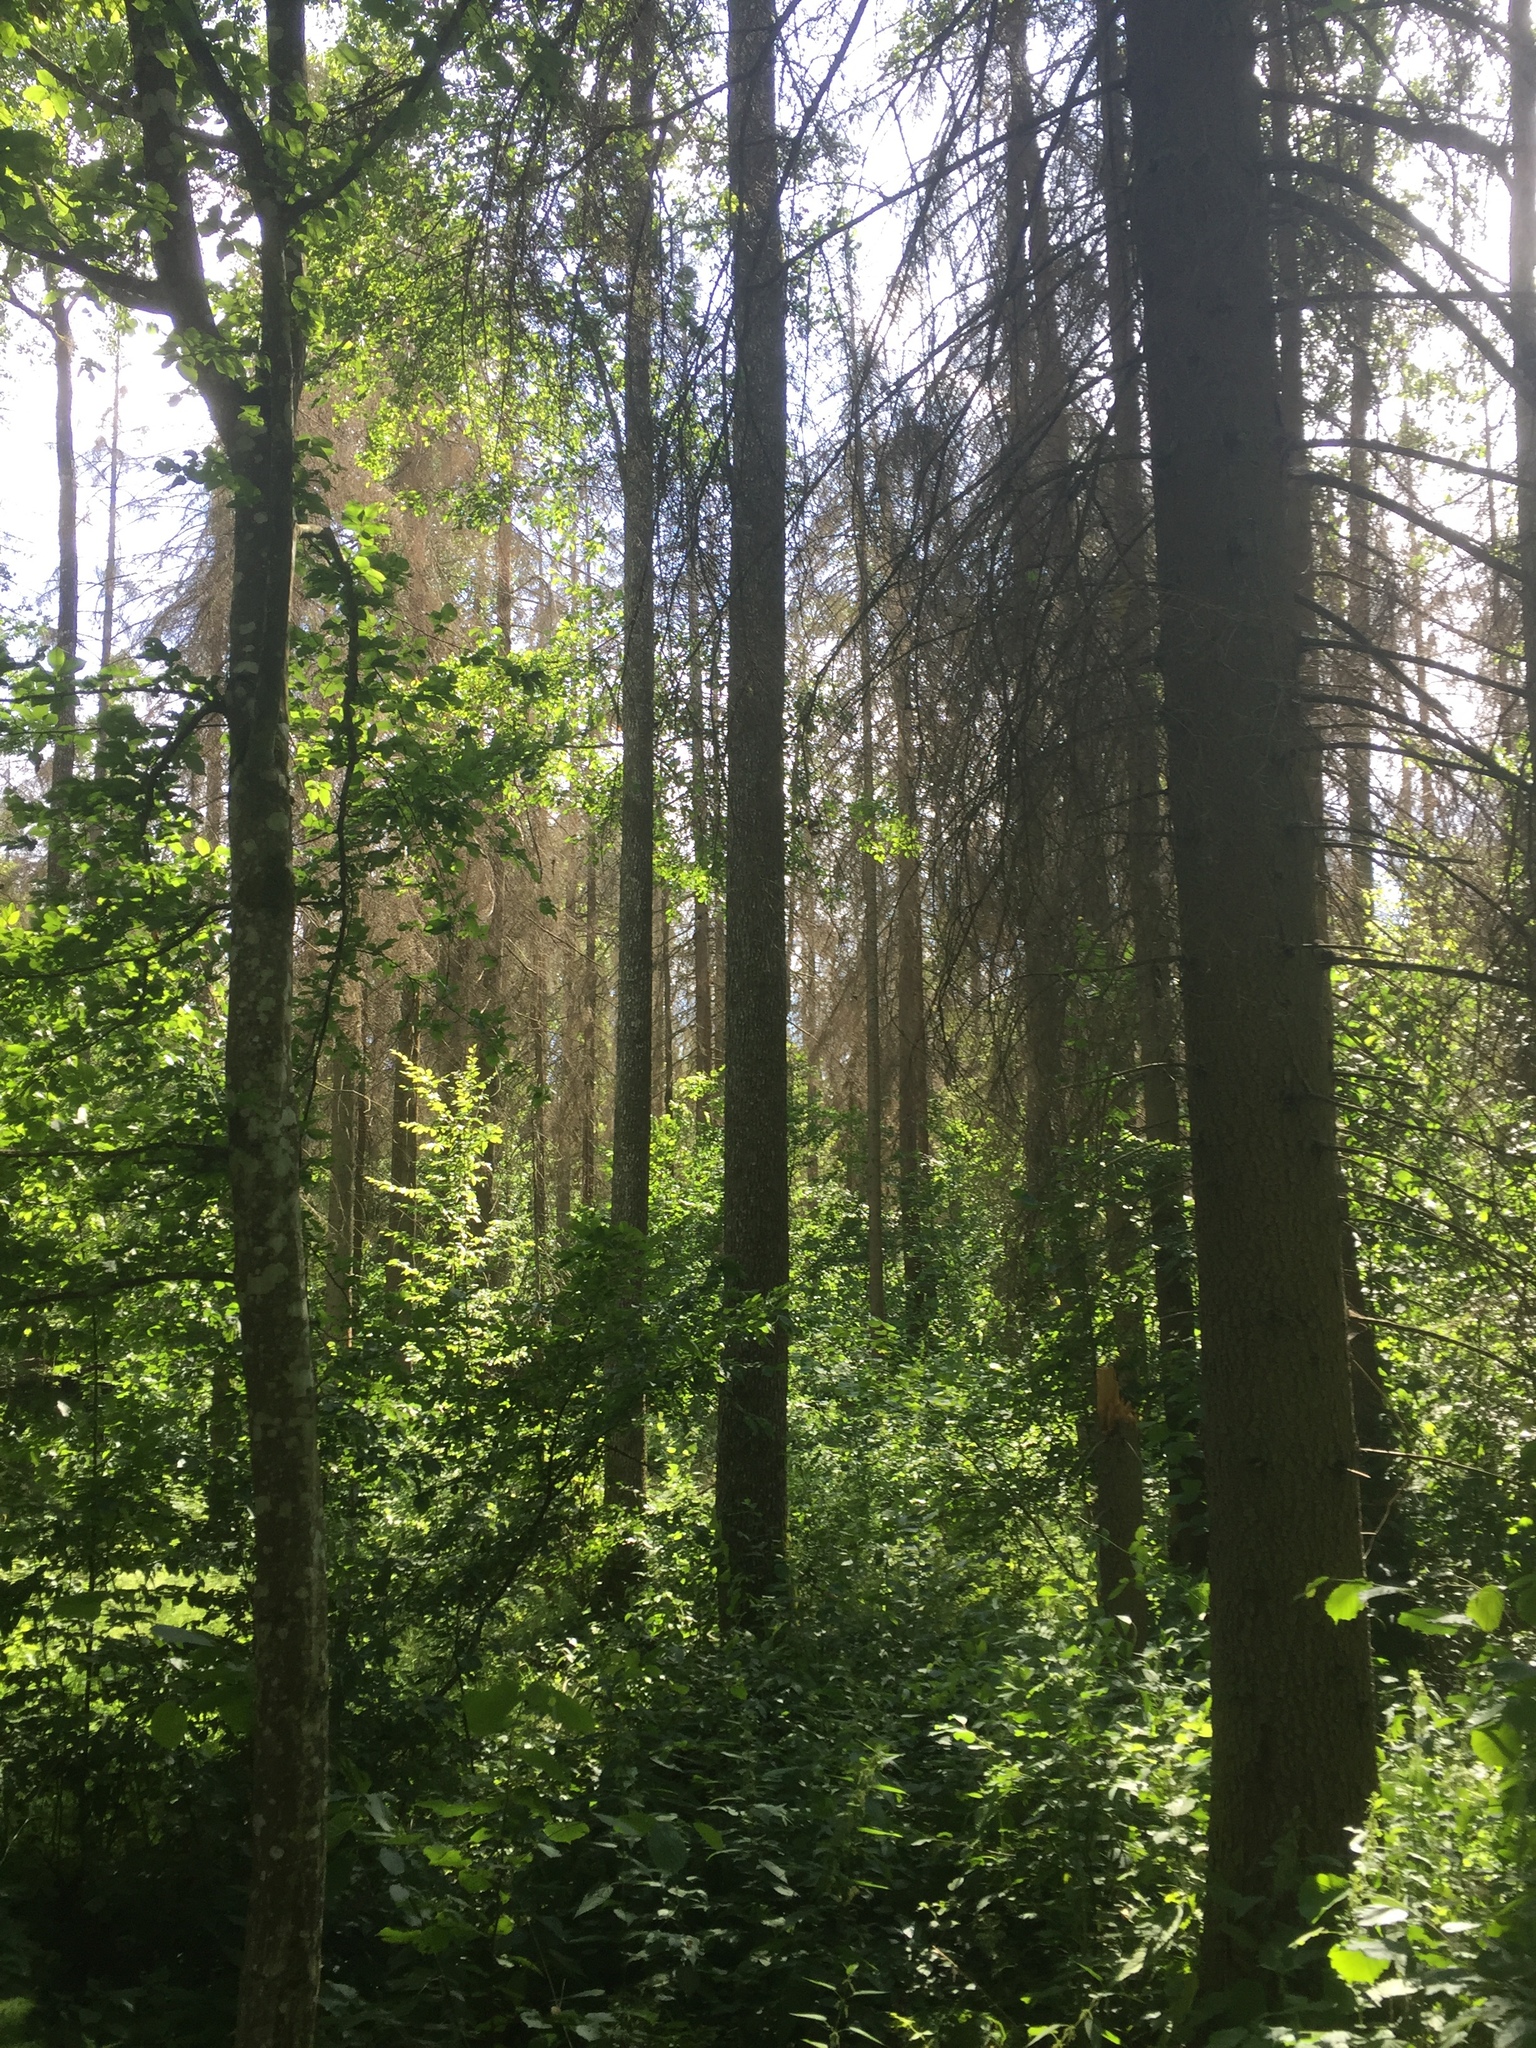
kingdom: Plantae
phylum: Tracheophyta
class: Pinopsida
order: Pinales
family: Pinaceae
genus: Picea
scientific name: Picea abies
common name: Norway spruce
